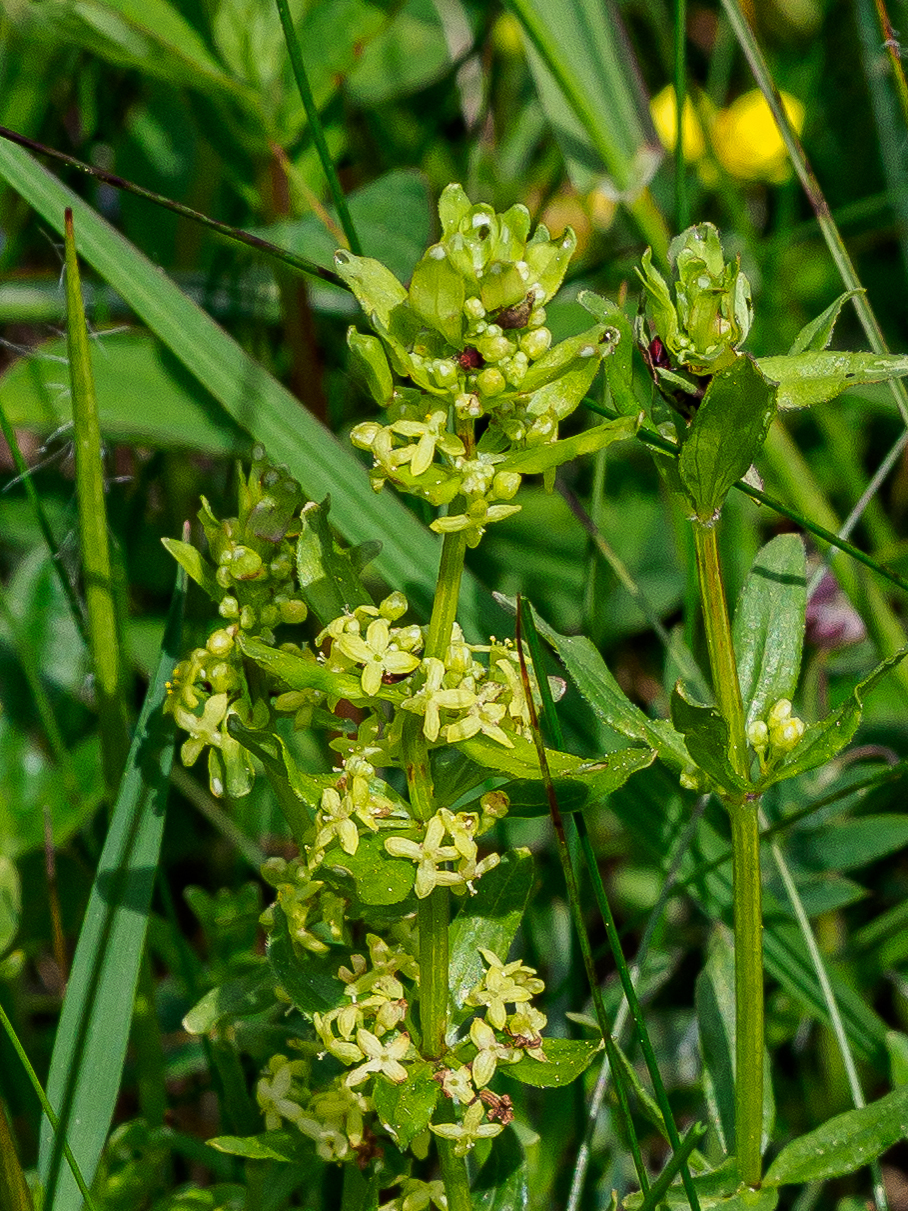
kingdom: Plantae
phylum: Tracheophyta
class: Magnoliopsida
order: Gentianales
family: Rubiaceae
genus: Cruciata
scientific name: Cruciata glabra
